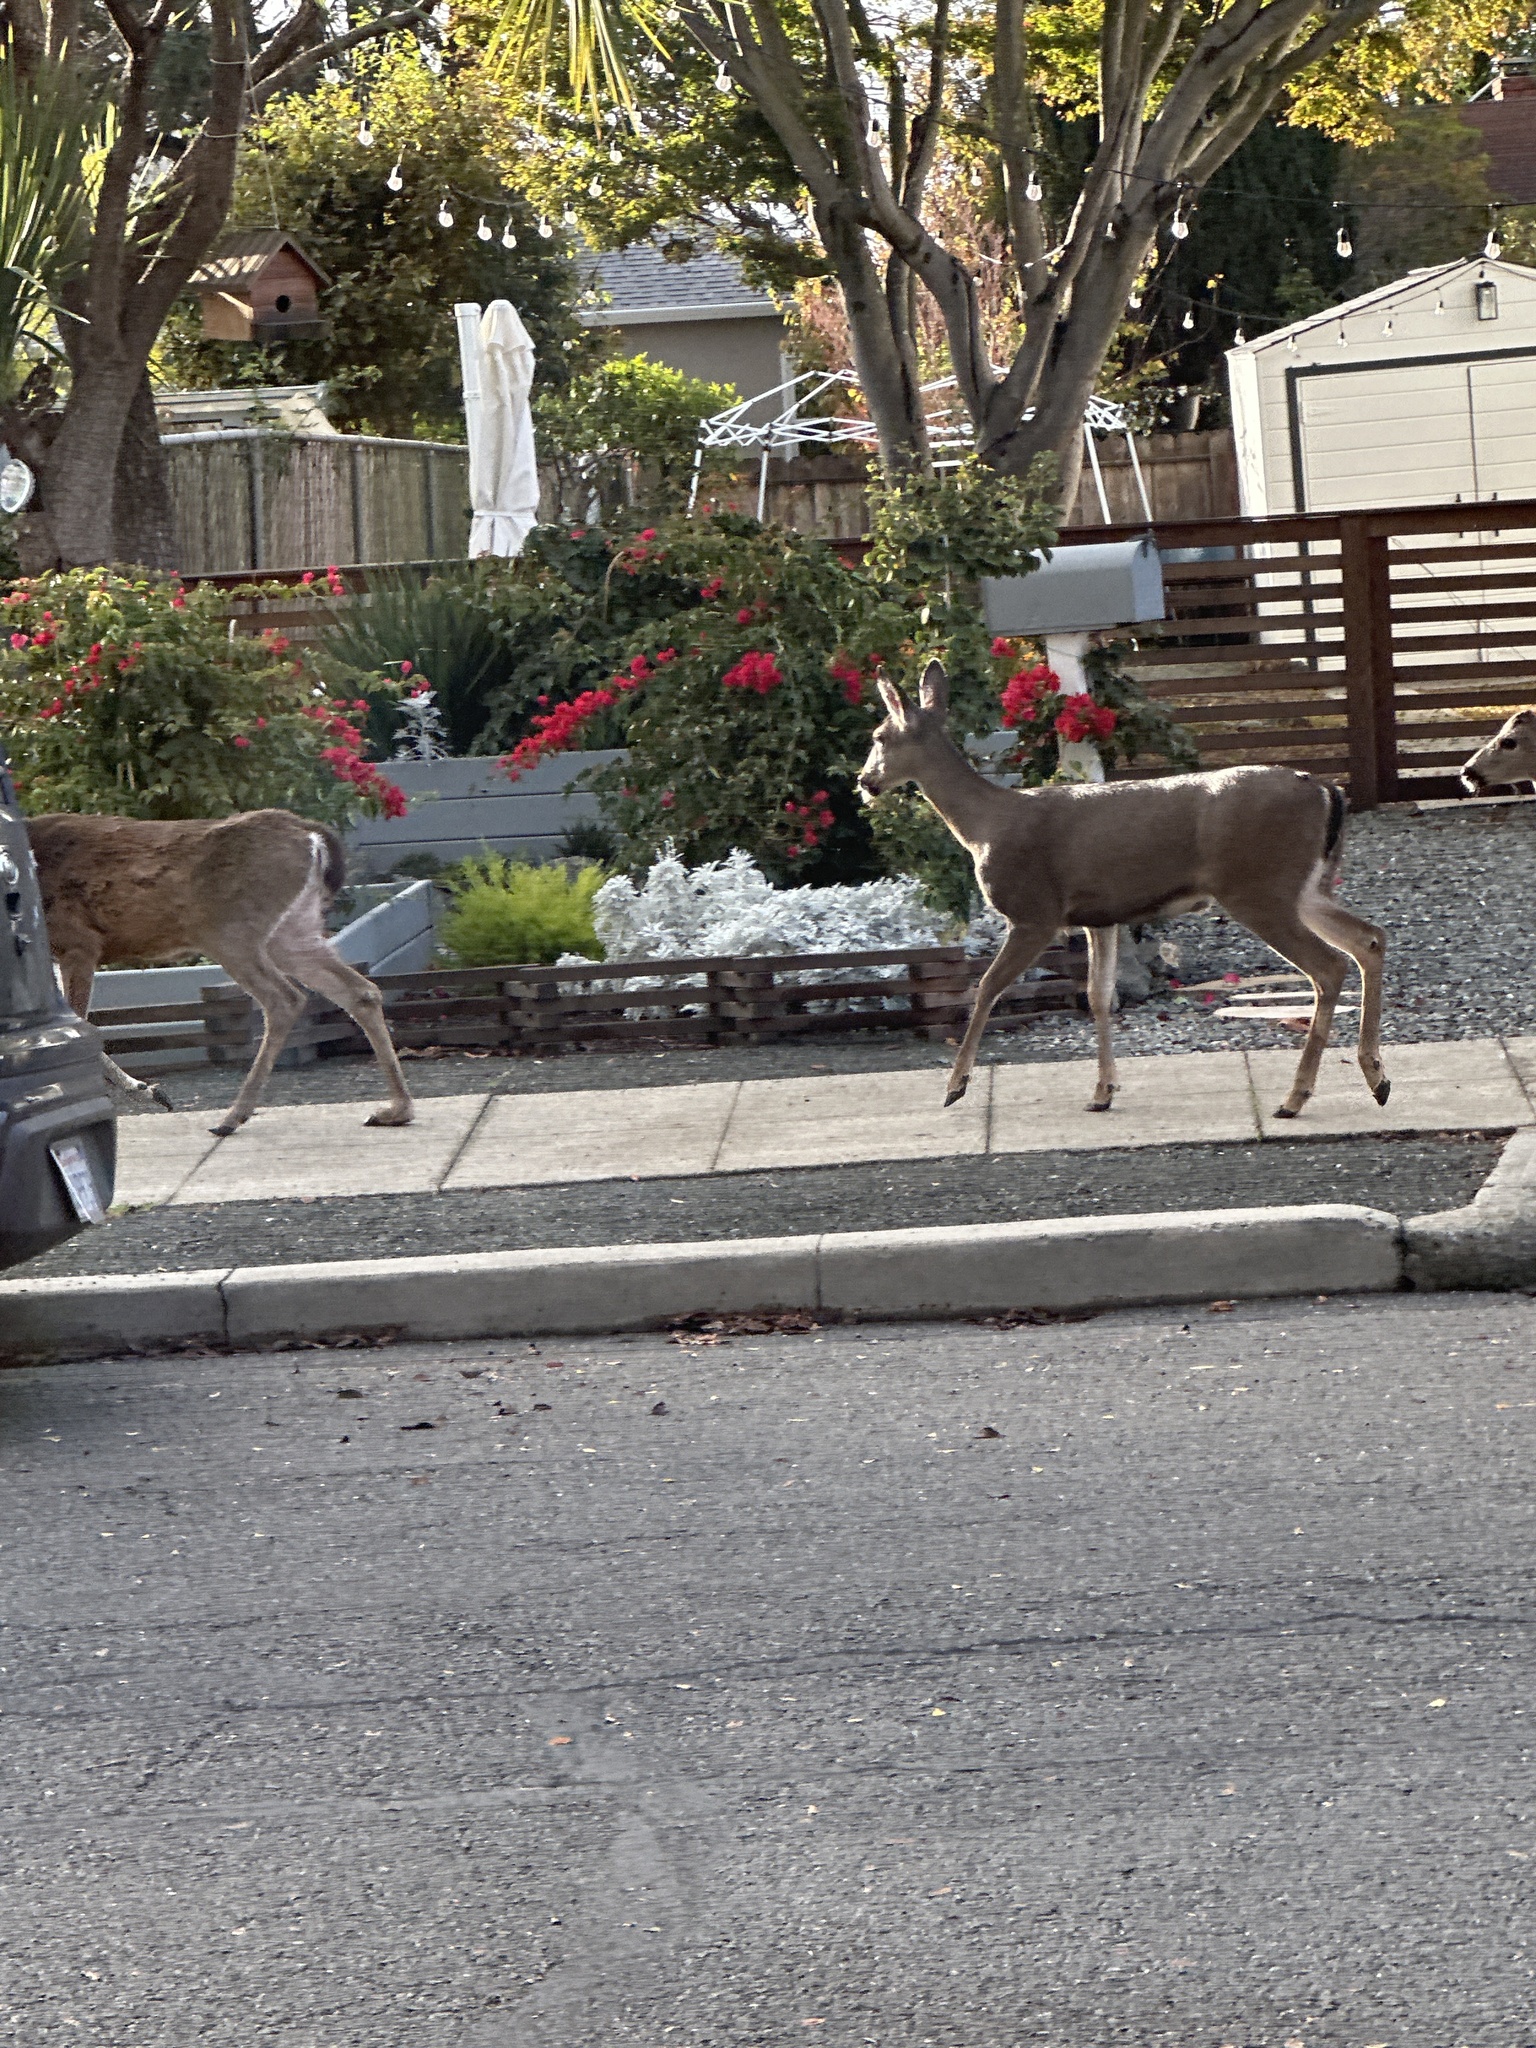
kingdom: Animalia
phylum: Chordata
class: Mammalia
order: Artiodactyla
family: Cervidae
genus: Odocoileus
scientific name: Odocoileus hemionus
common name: Mule deer
